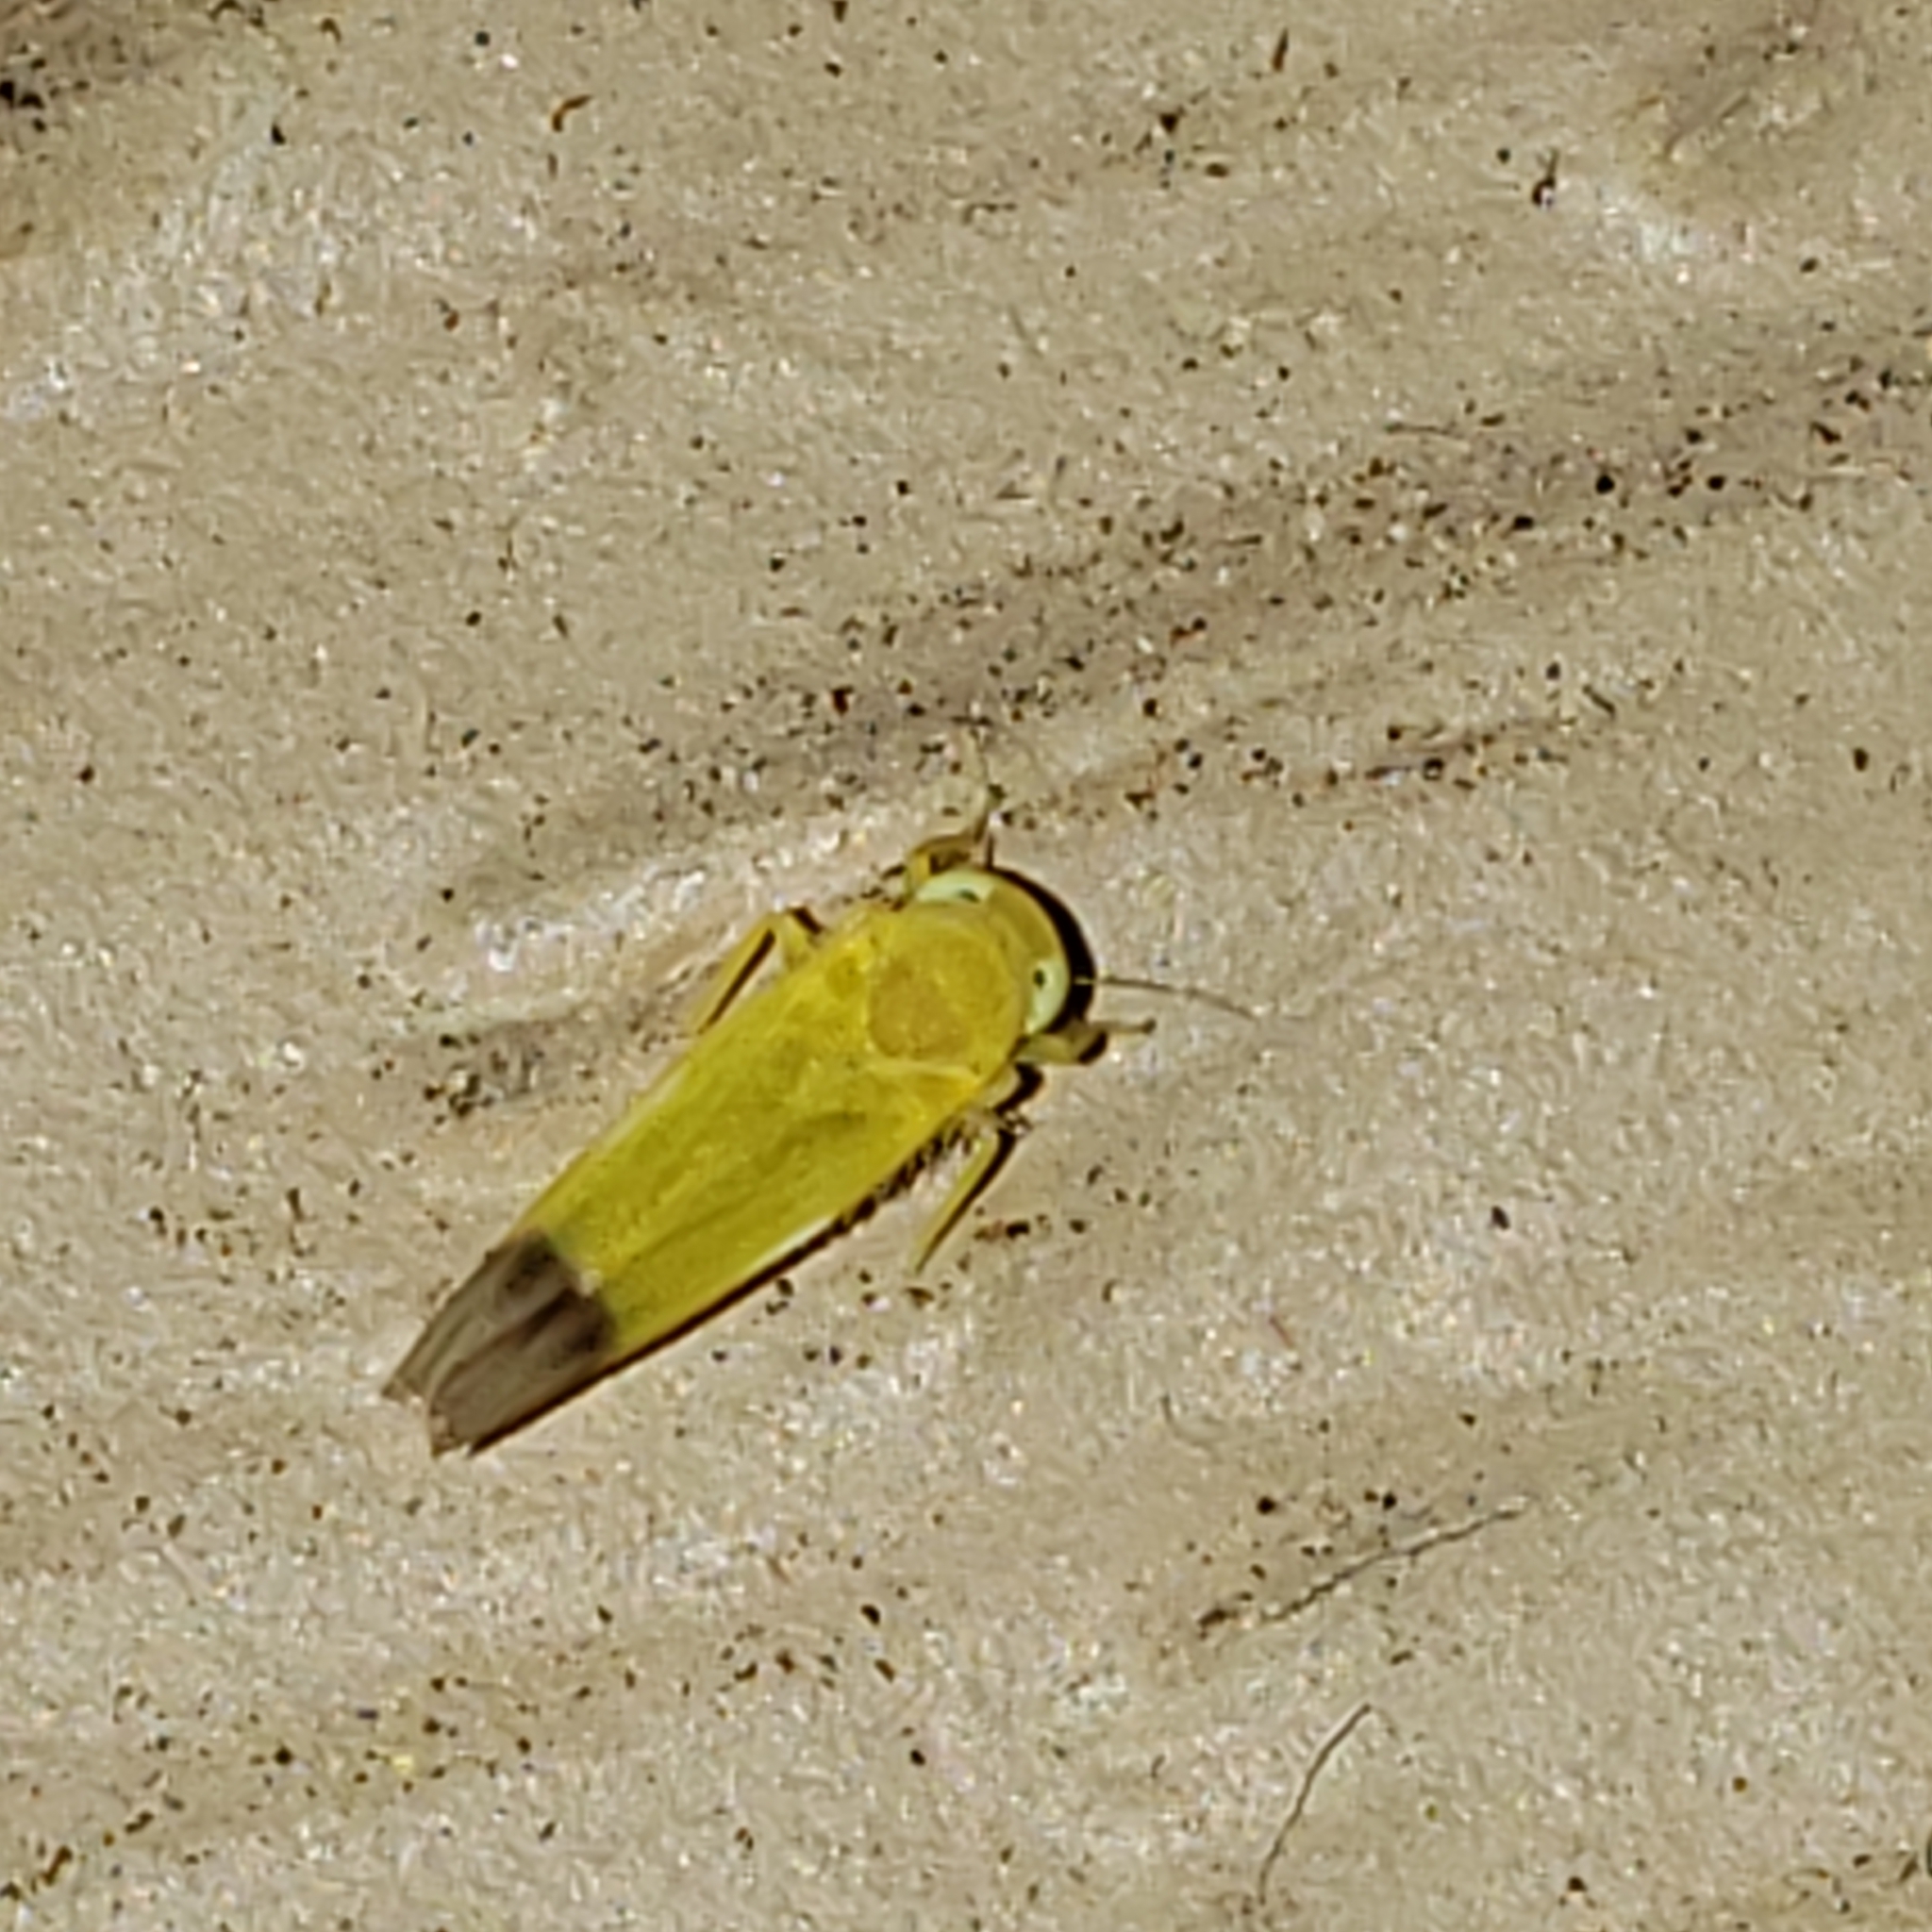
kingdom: Animalia
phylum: Arthropoda
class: Insecta
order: Hemiptera
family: Cicadellidae
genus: Alebra
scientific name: Alebra bicincta
